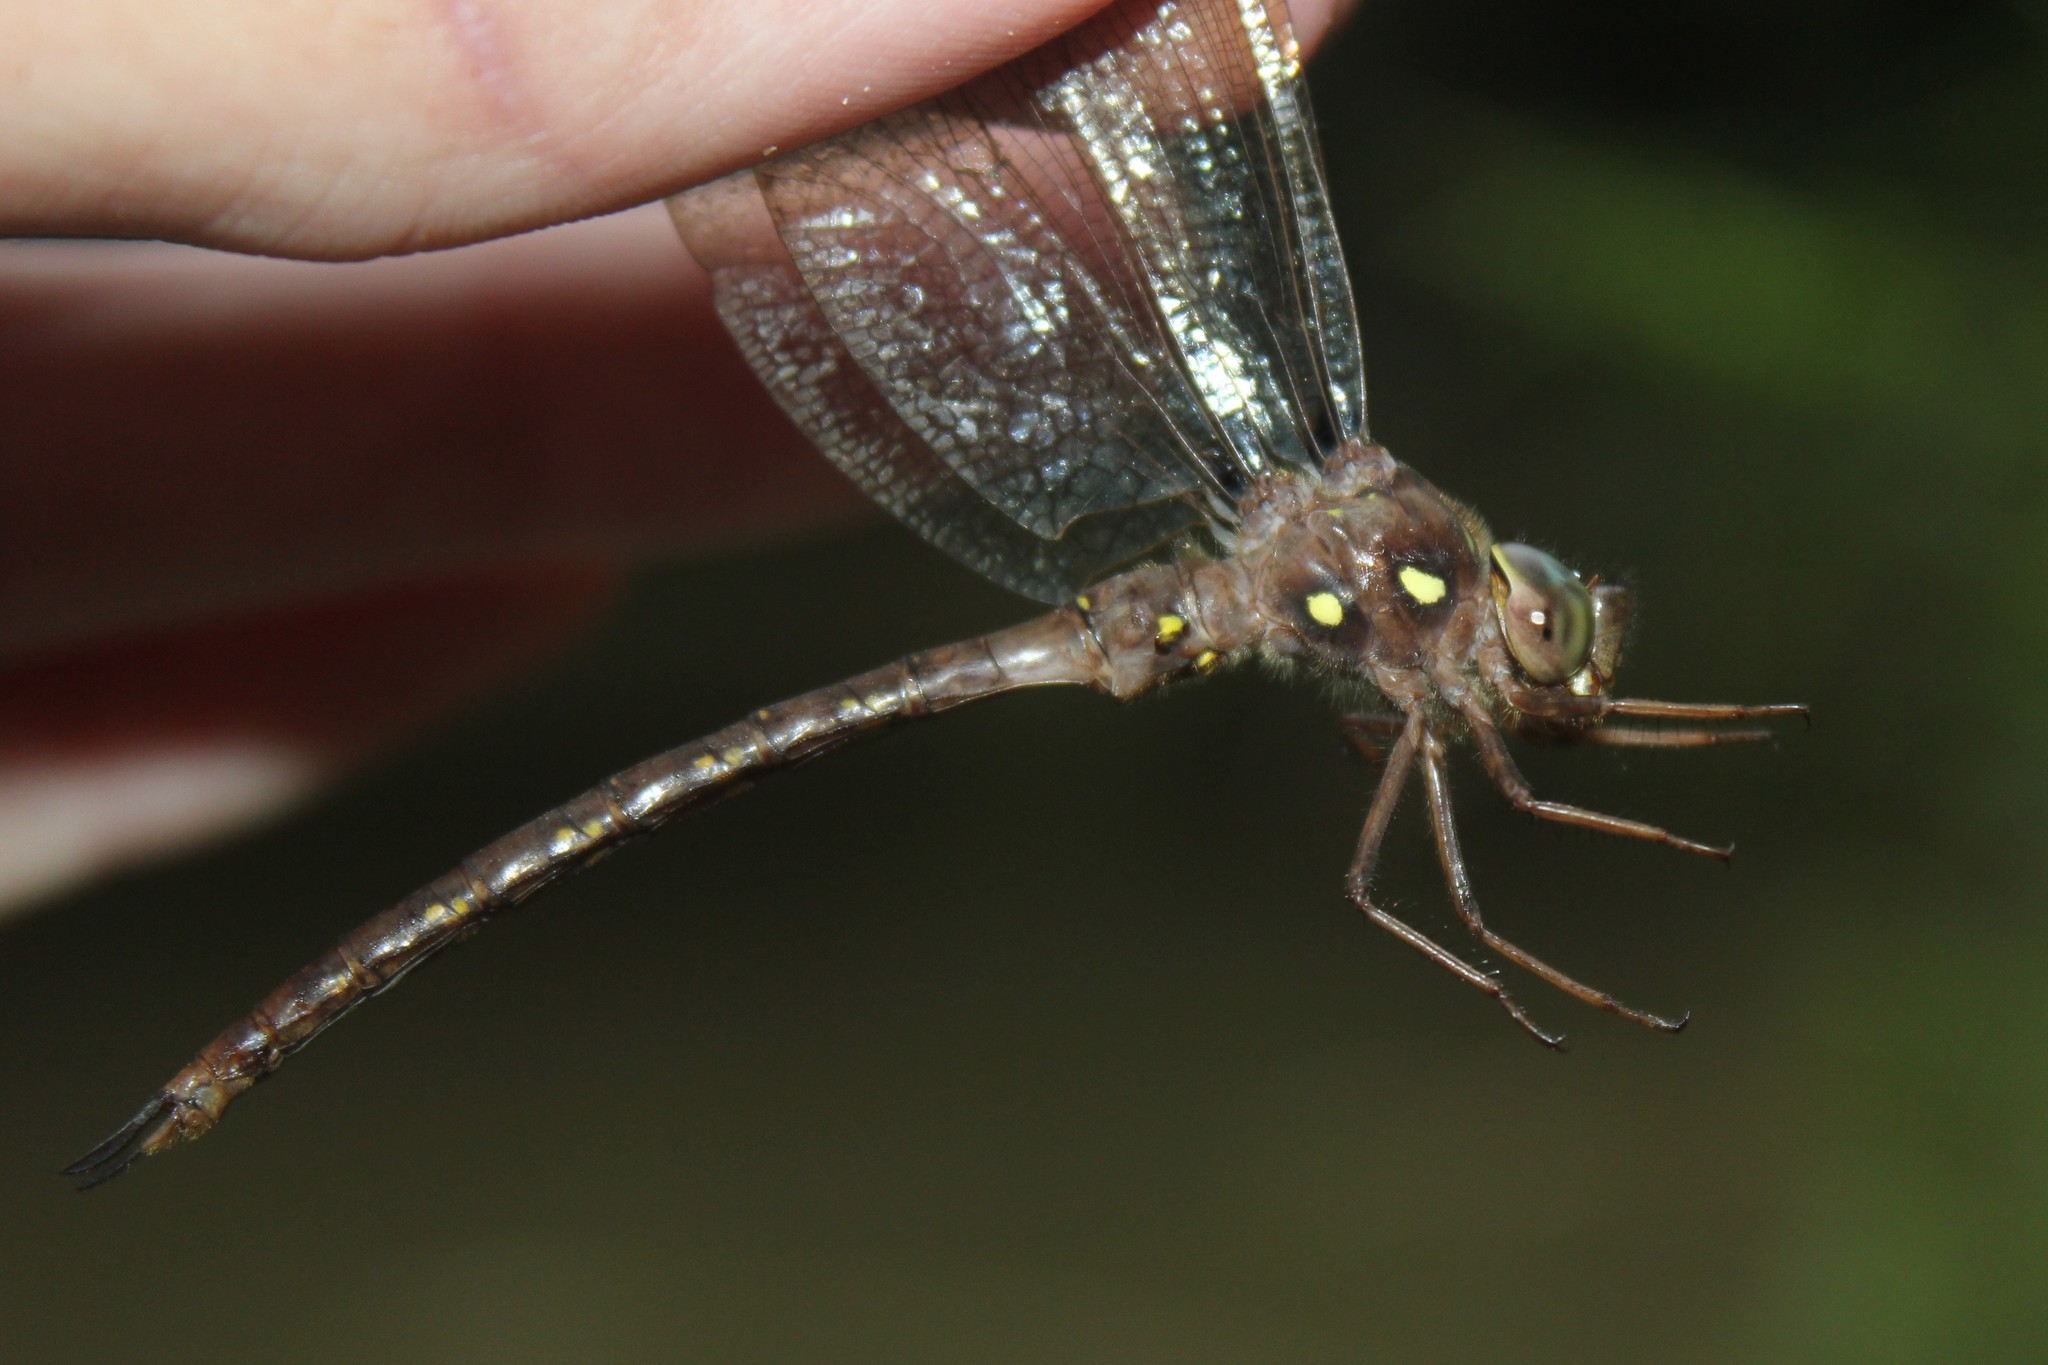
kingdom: Animalia
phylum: Arthropoda
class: Insecta
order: Odonata
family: Aeshnidae
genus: Boyeria
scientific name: Boyeria vinosa
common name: Fawn darner
